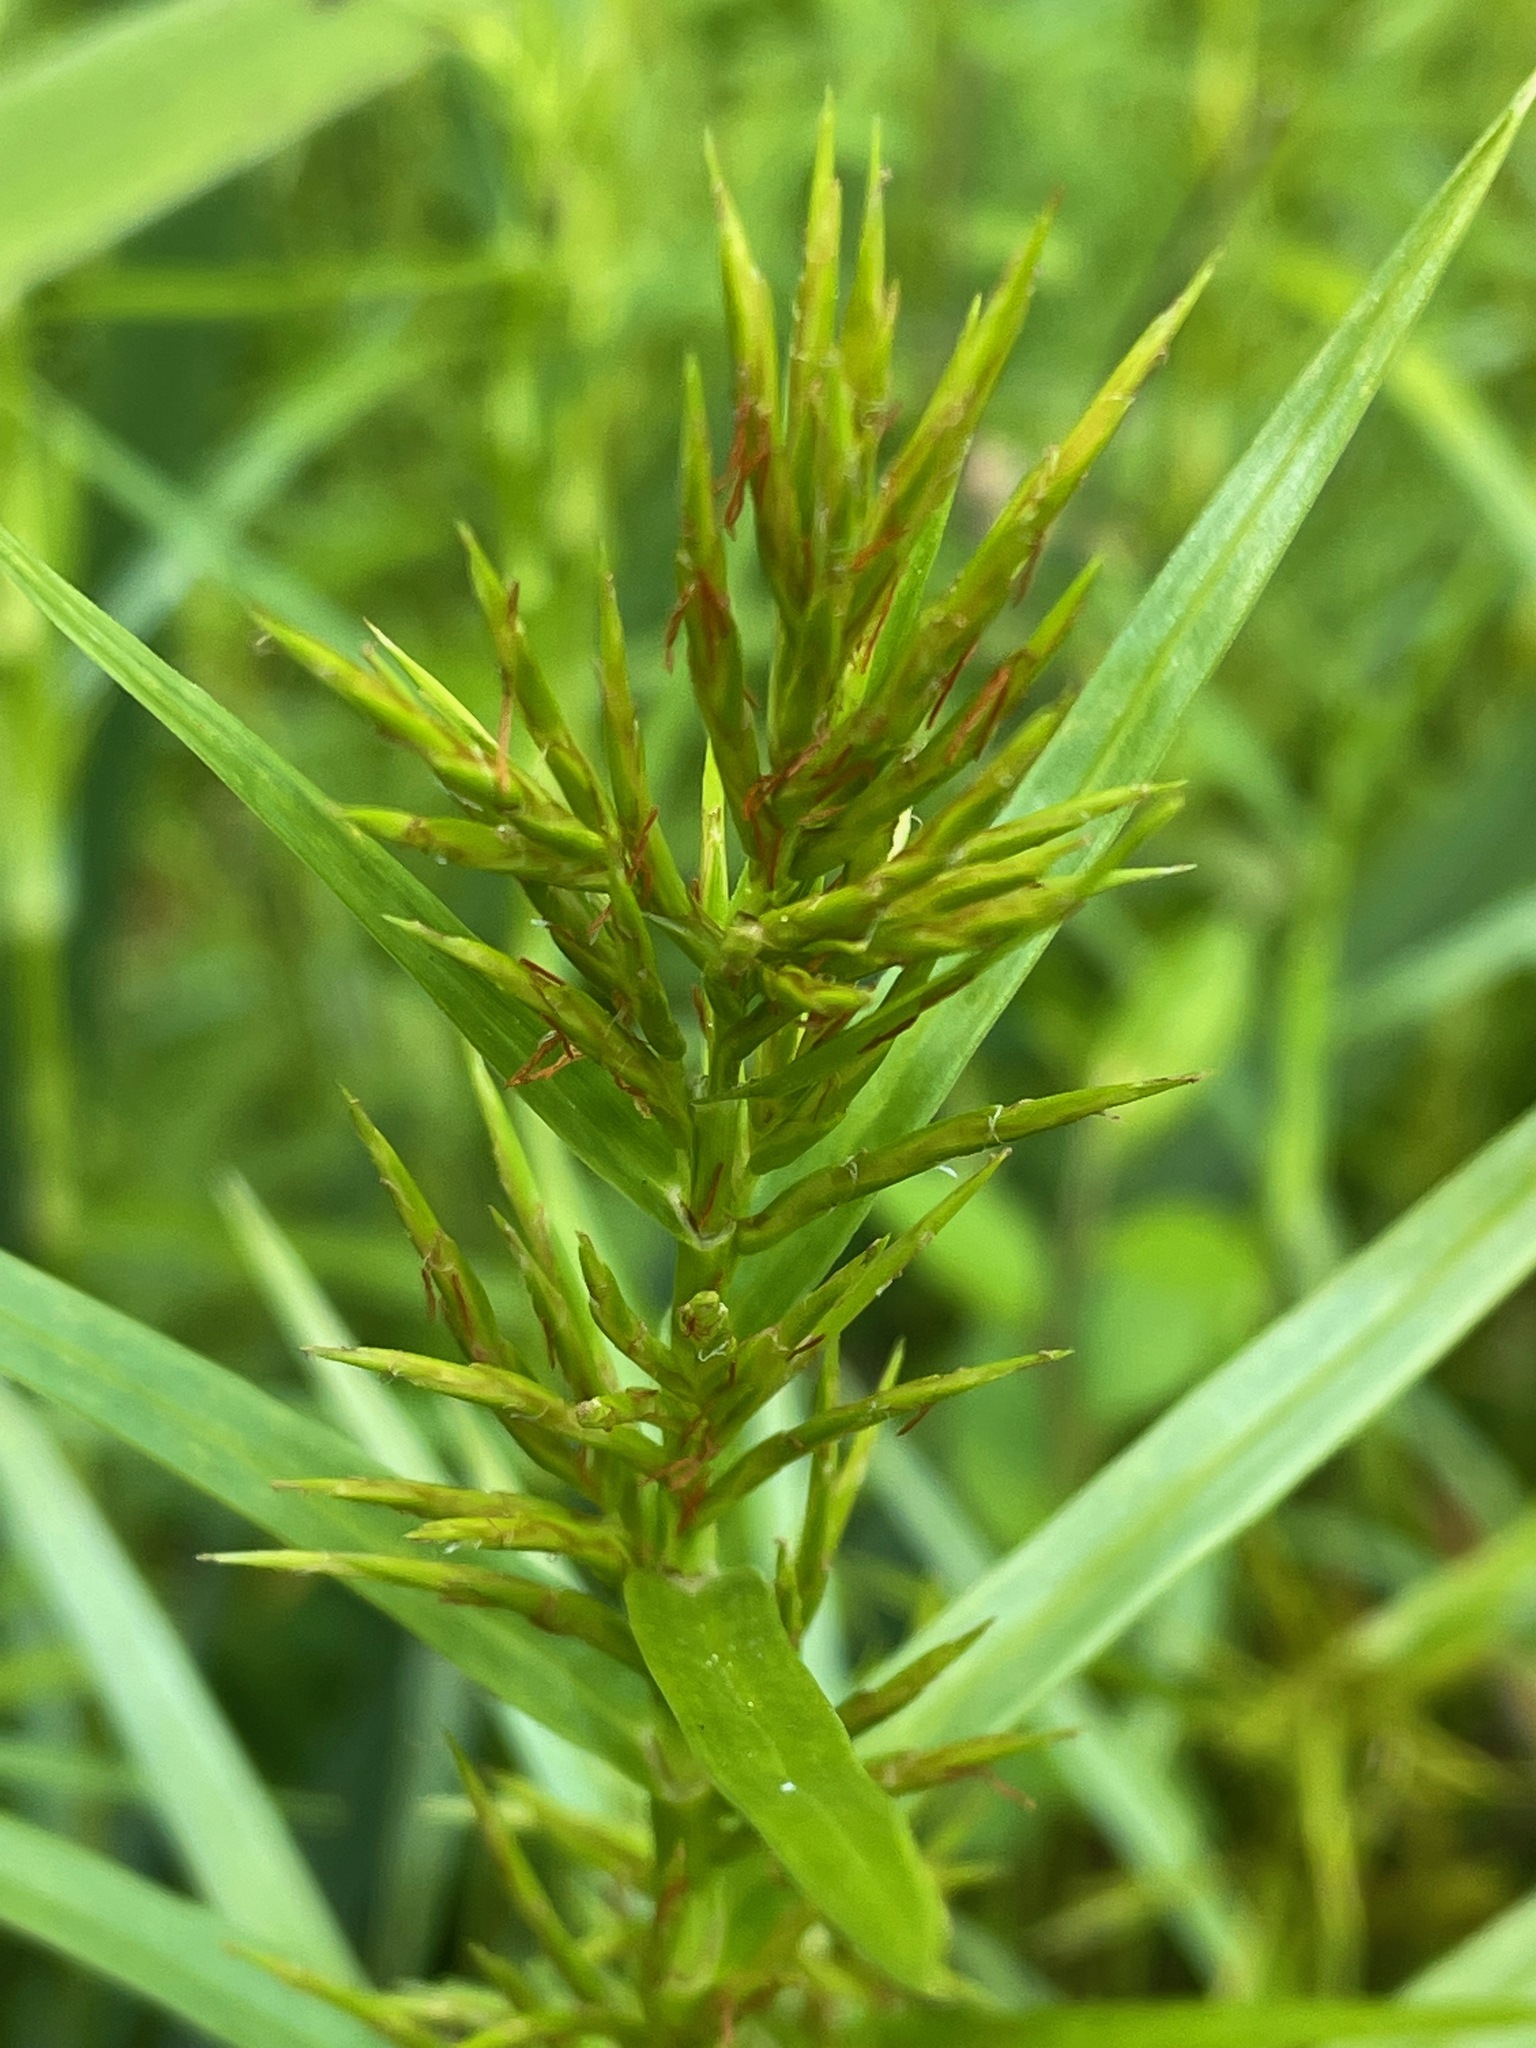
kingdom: Plantae
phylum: Tracheophyta
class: Liliopsida
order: Poales
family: Cyperaceae
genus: Dulichium
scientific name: Dulichium arundinaceum
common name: Three-way sedge
